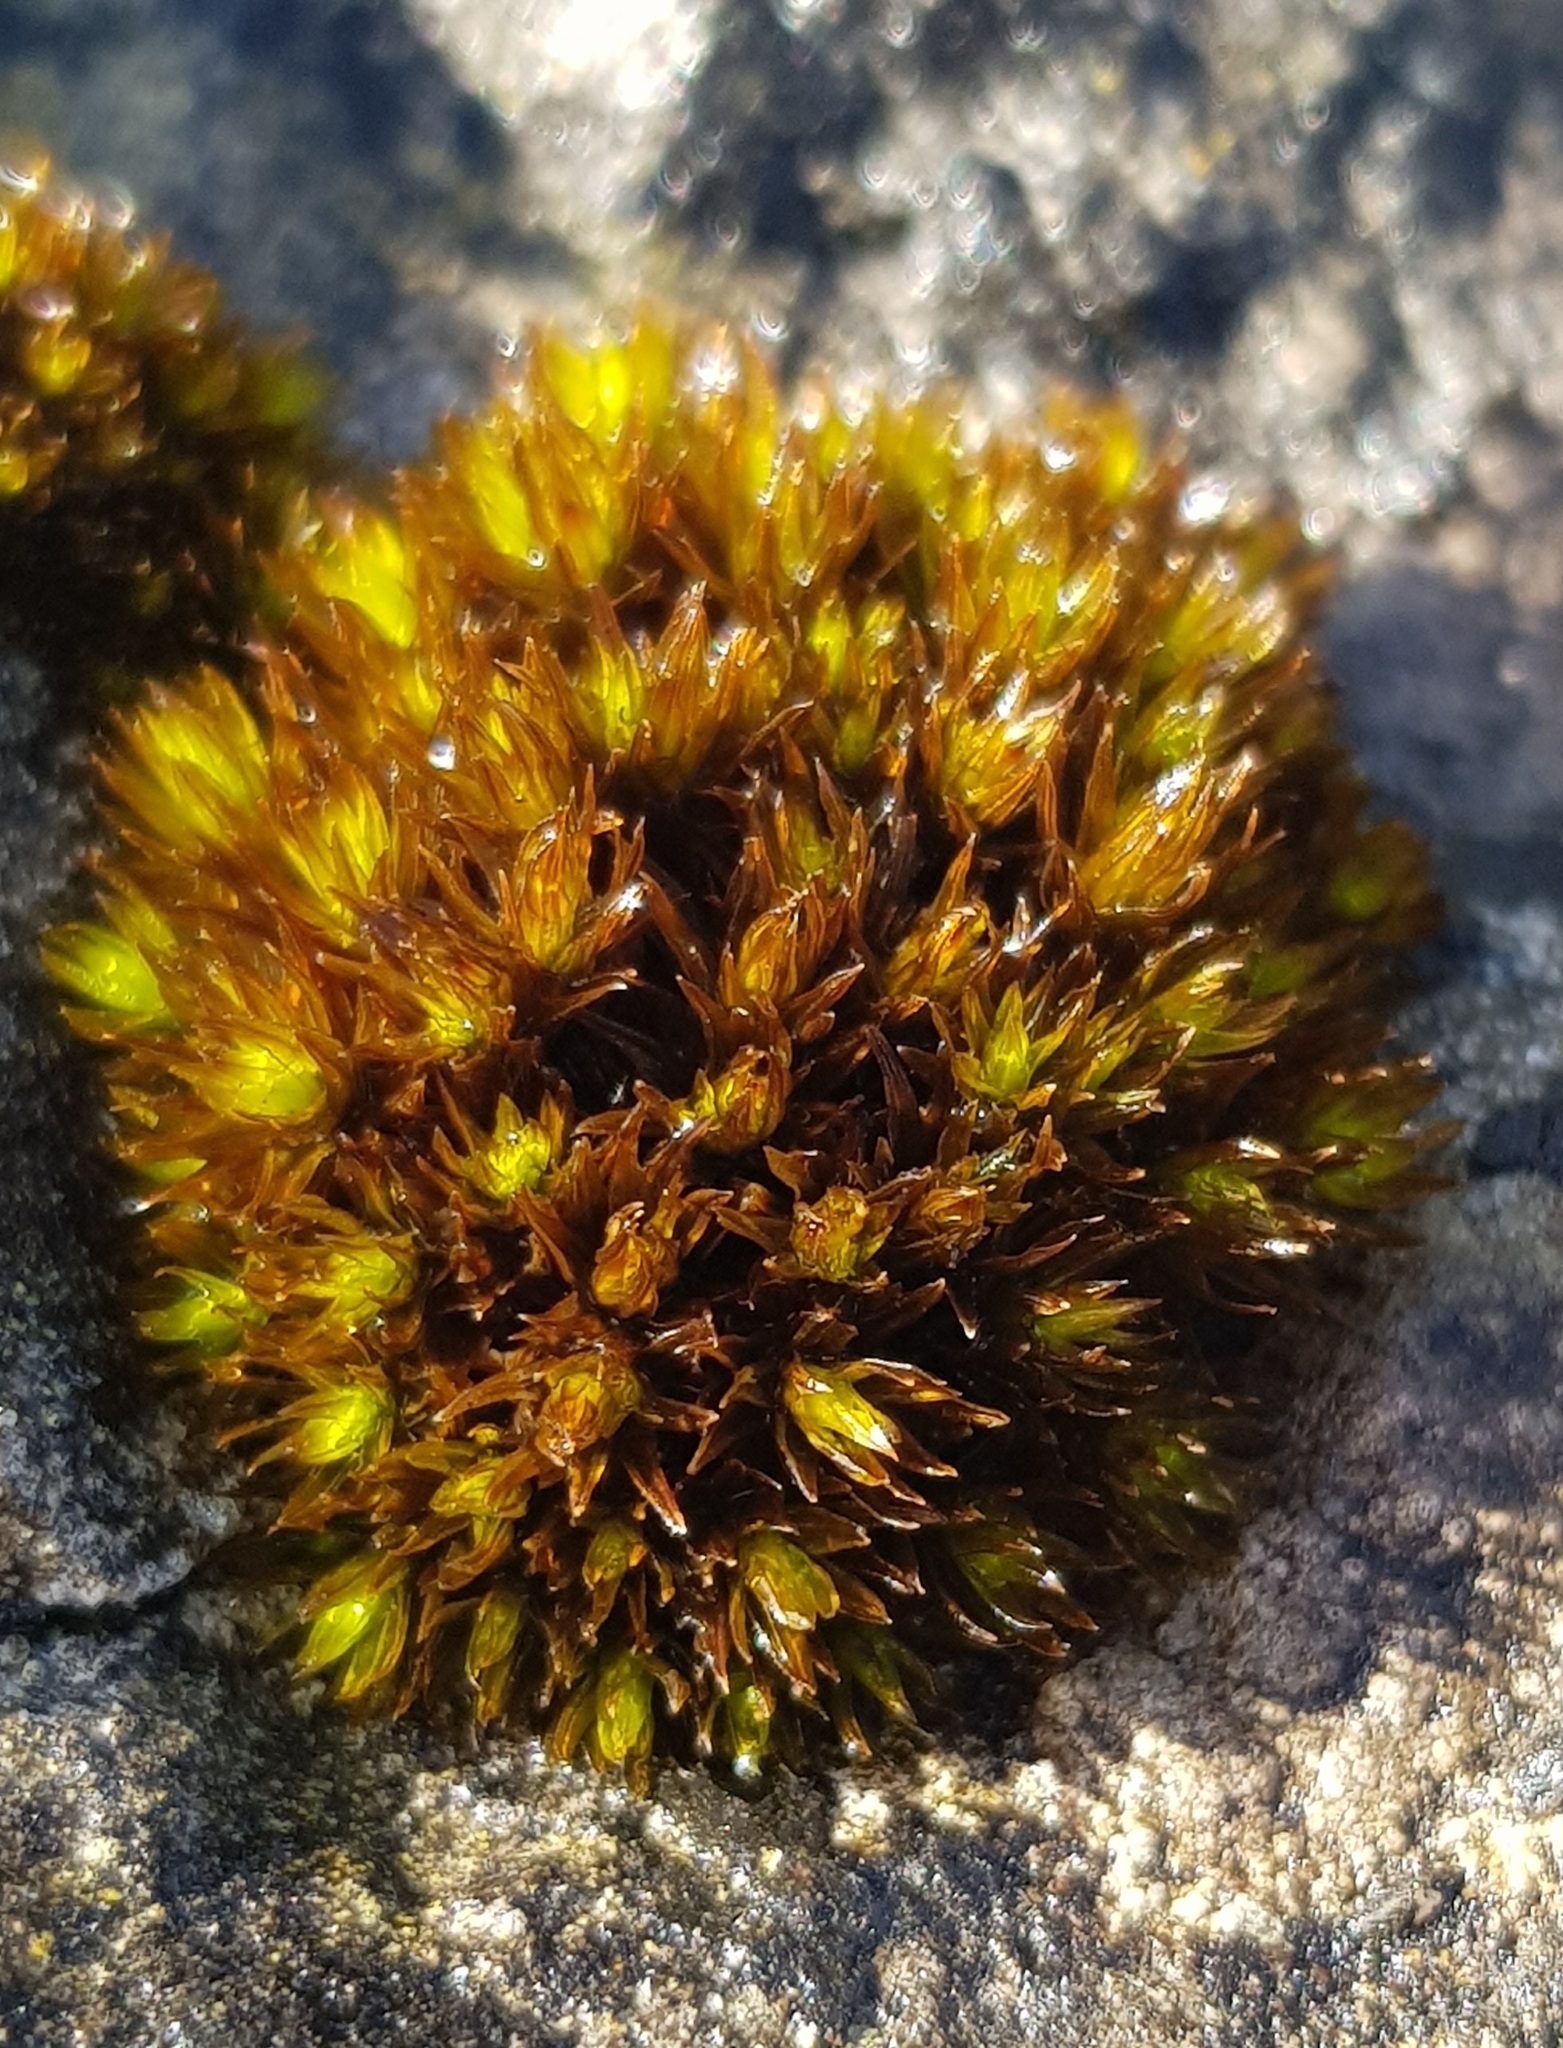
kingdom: Plantae
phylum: Bryophyta
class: Bryopsida
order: Orthotrichales
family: Orthotrichaceae
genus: Orthotrichum
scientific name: Orthotrichum anomalum
